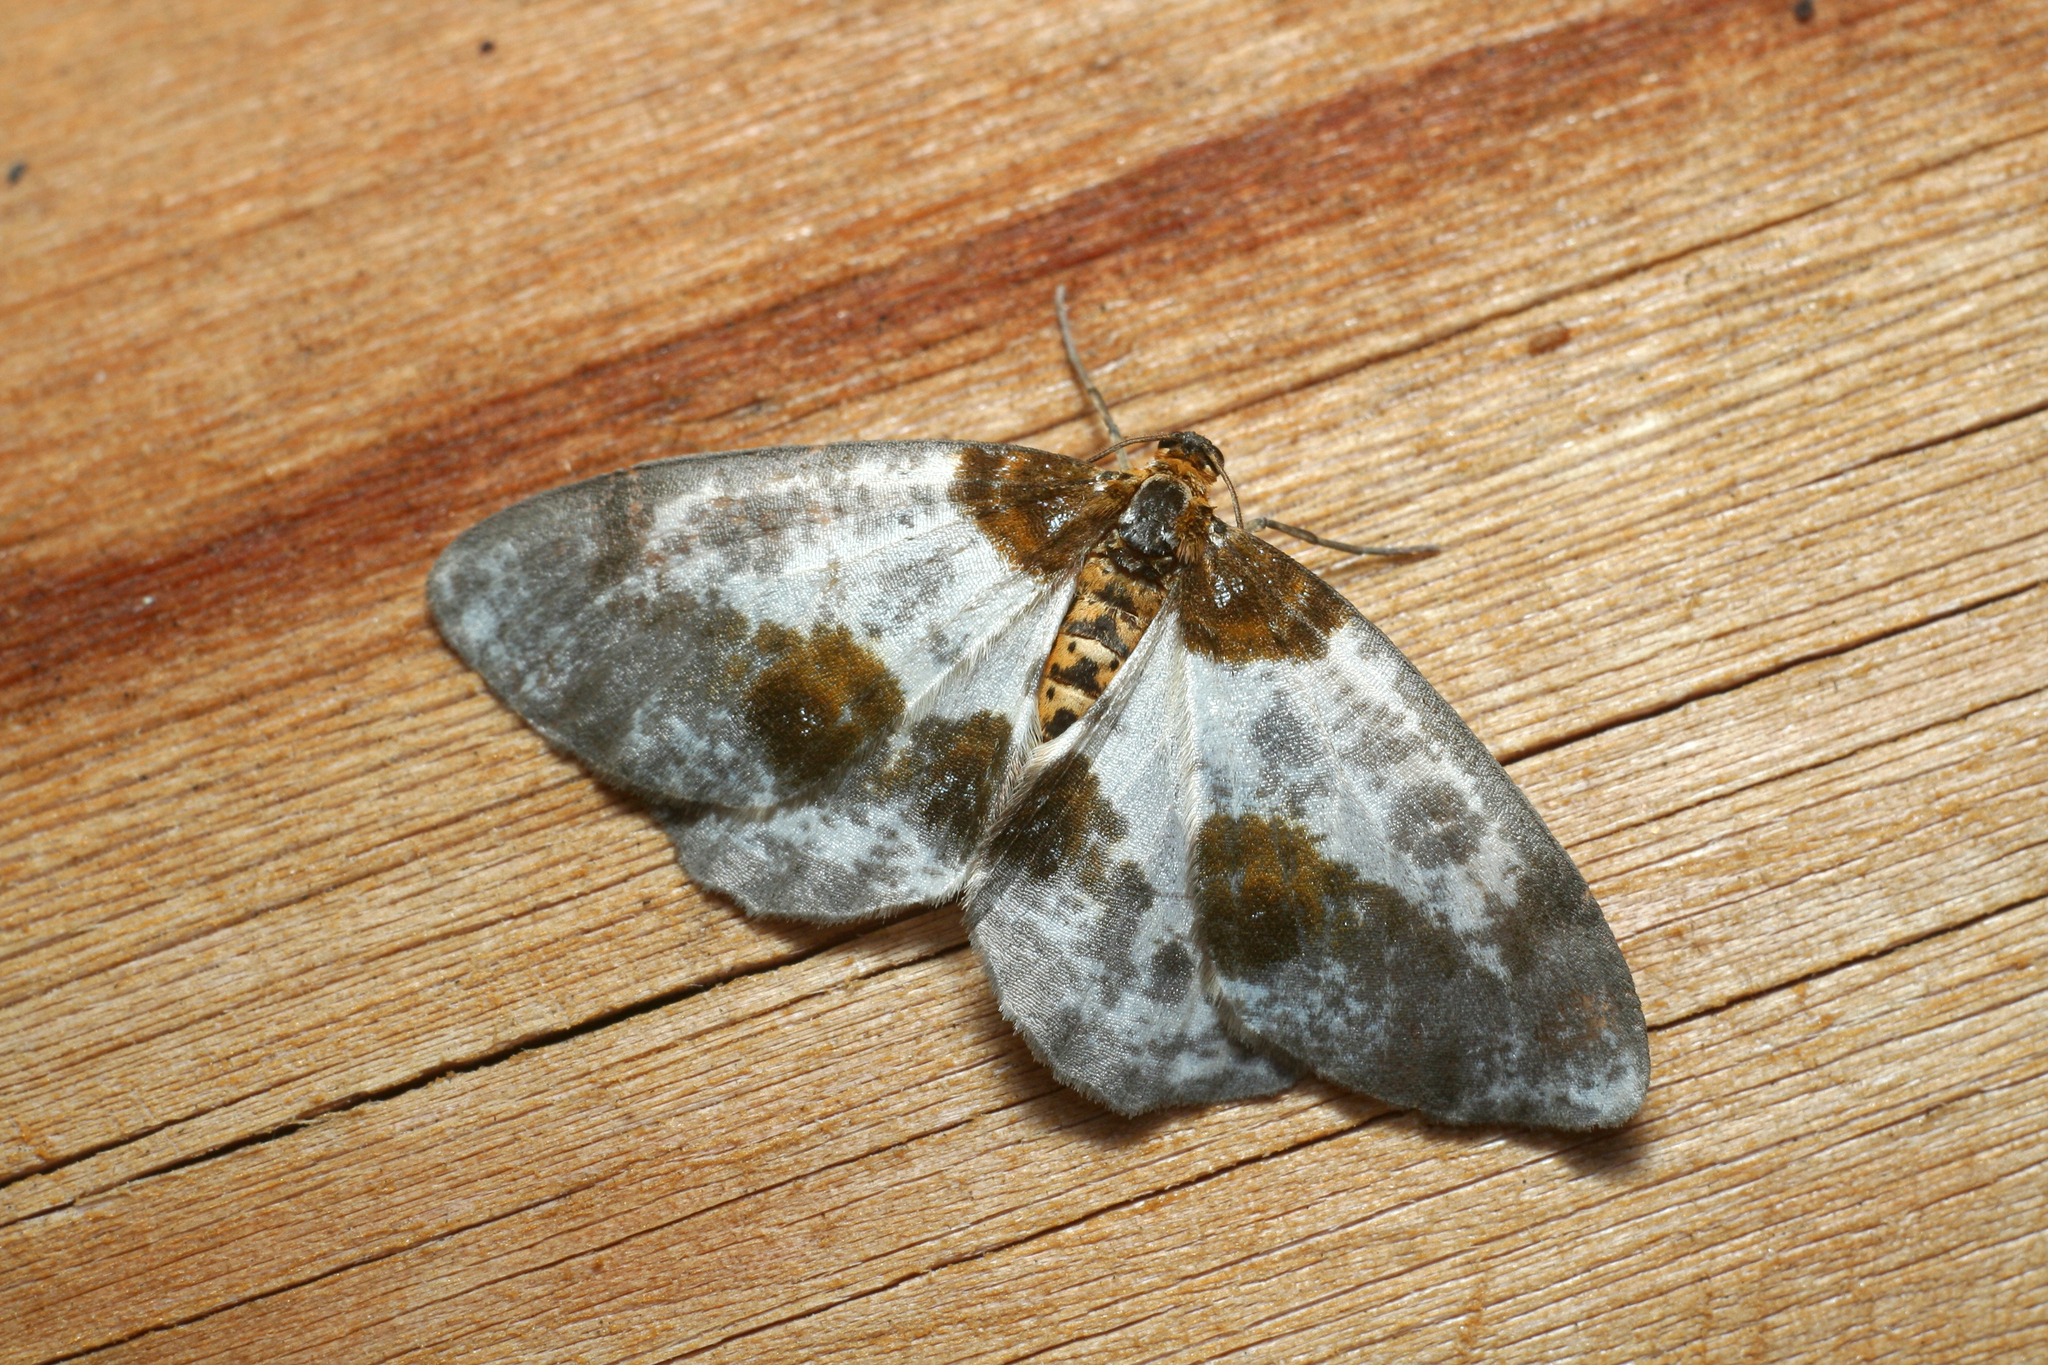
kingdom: Animalia
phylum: Arthropoda
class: Insecta
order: Lepidoptera
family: Geometridae
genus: Abraxas
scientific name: Abraxas sylvata
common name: Clouded magpie
